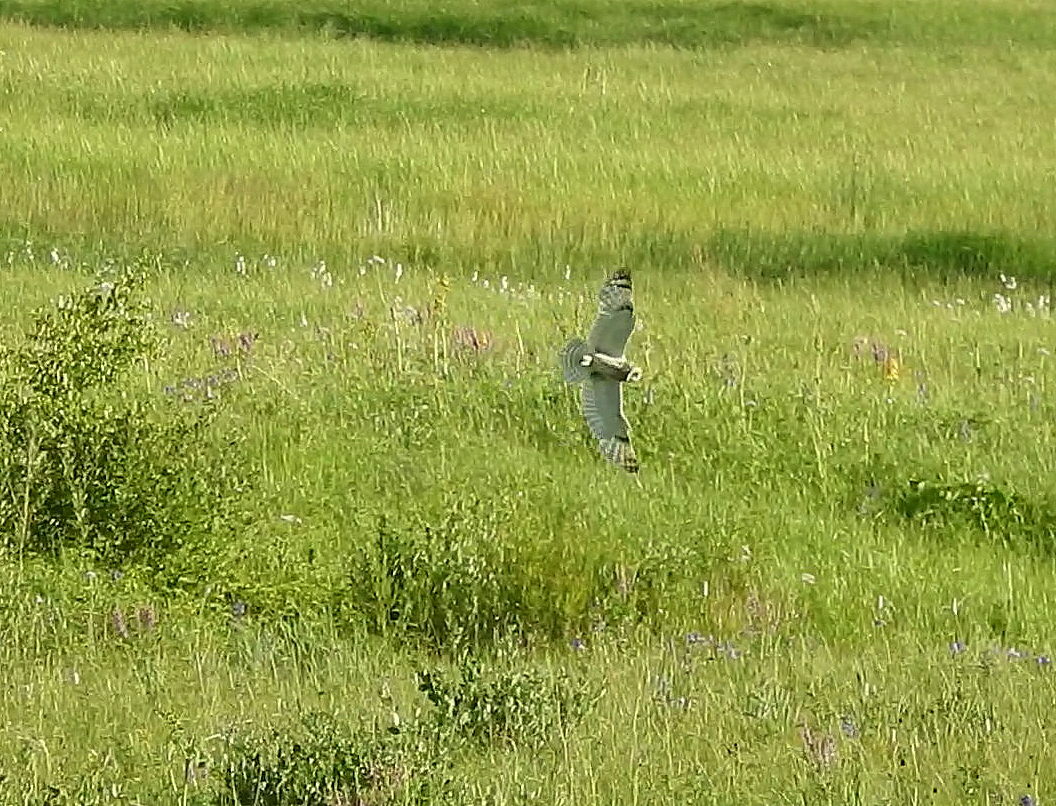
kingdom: Animalia
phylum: Chordata
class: Aves
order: Strigiformes
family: Strigidae
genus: Asio
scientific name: Asio flammeus
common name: Short-eared owl
